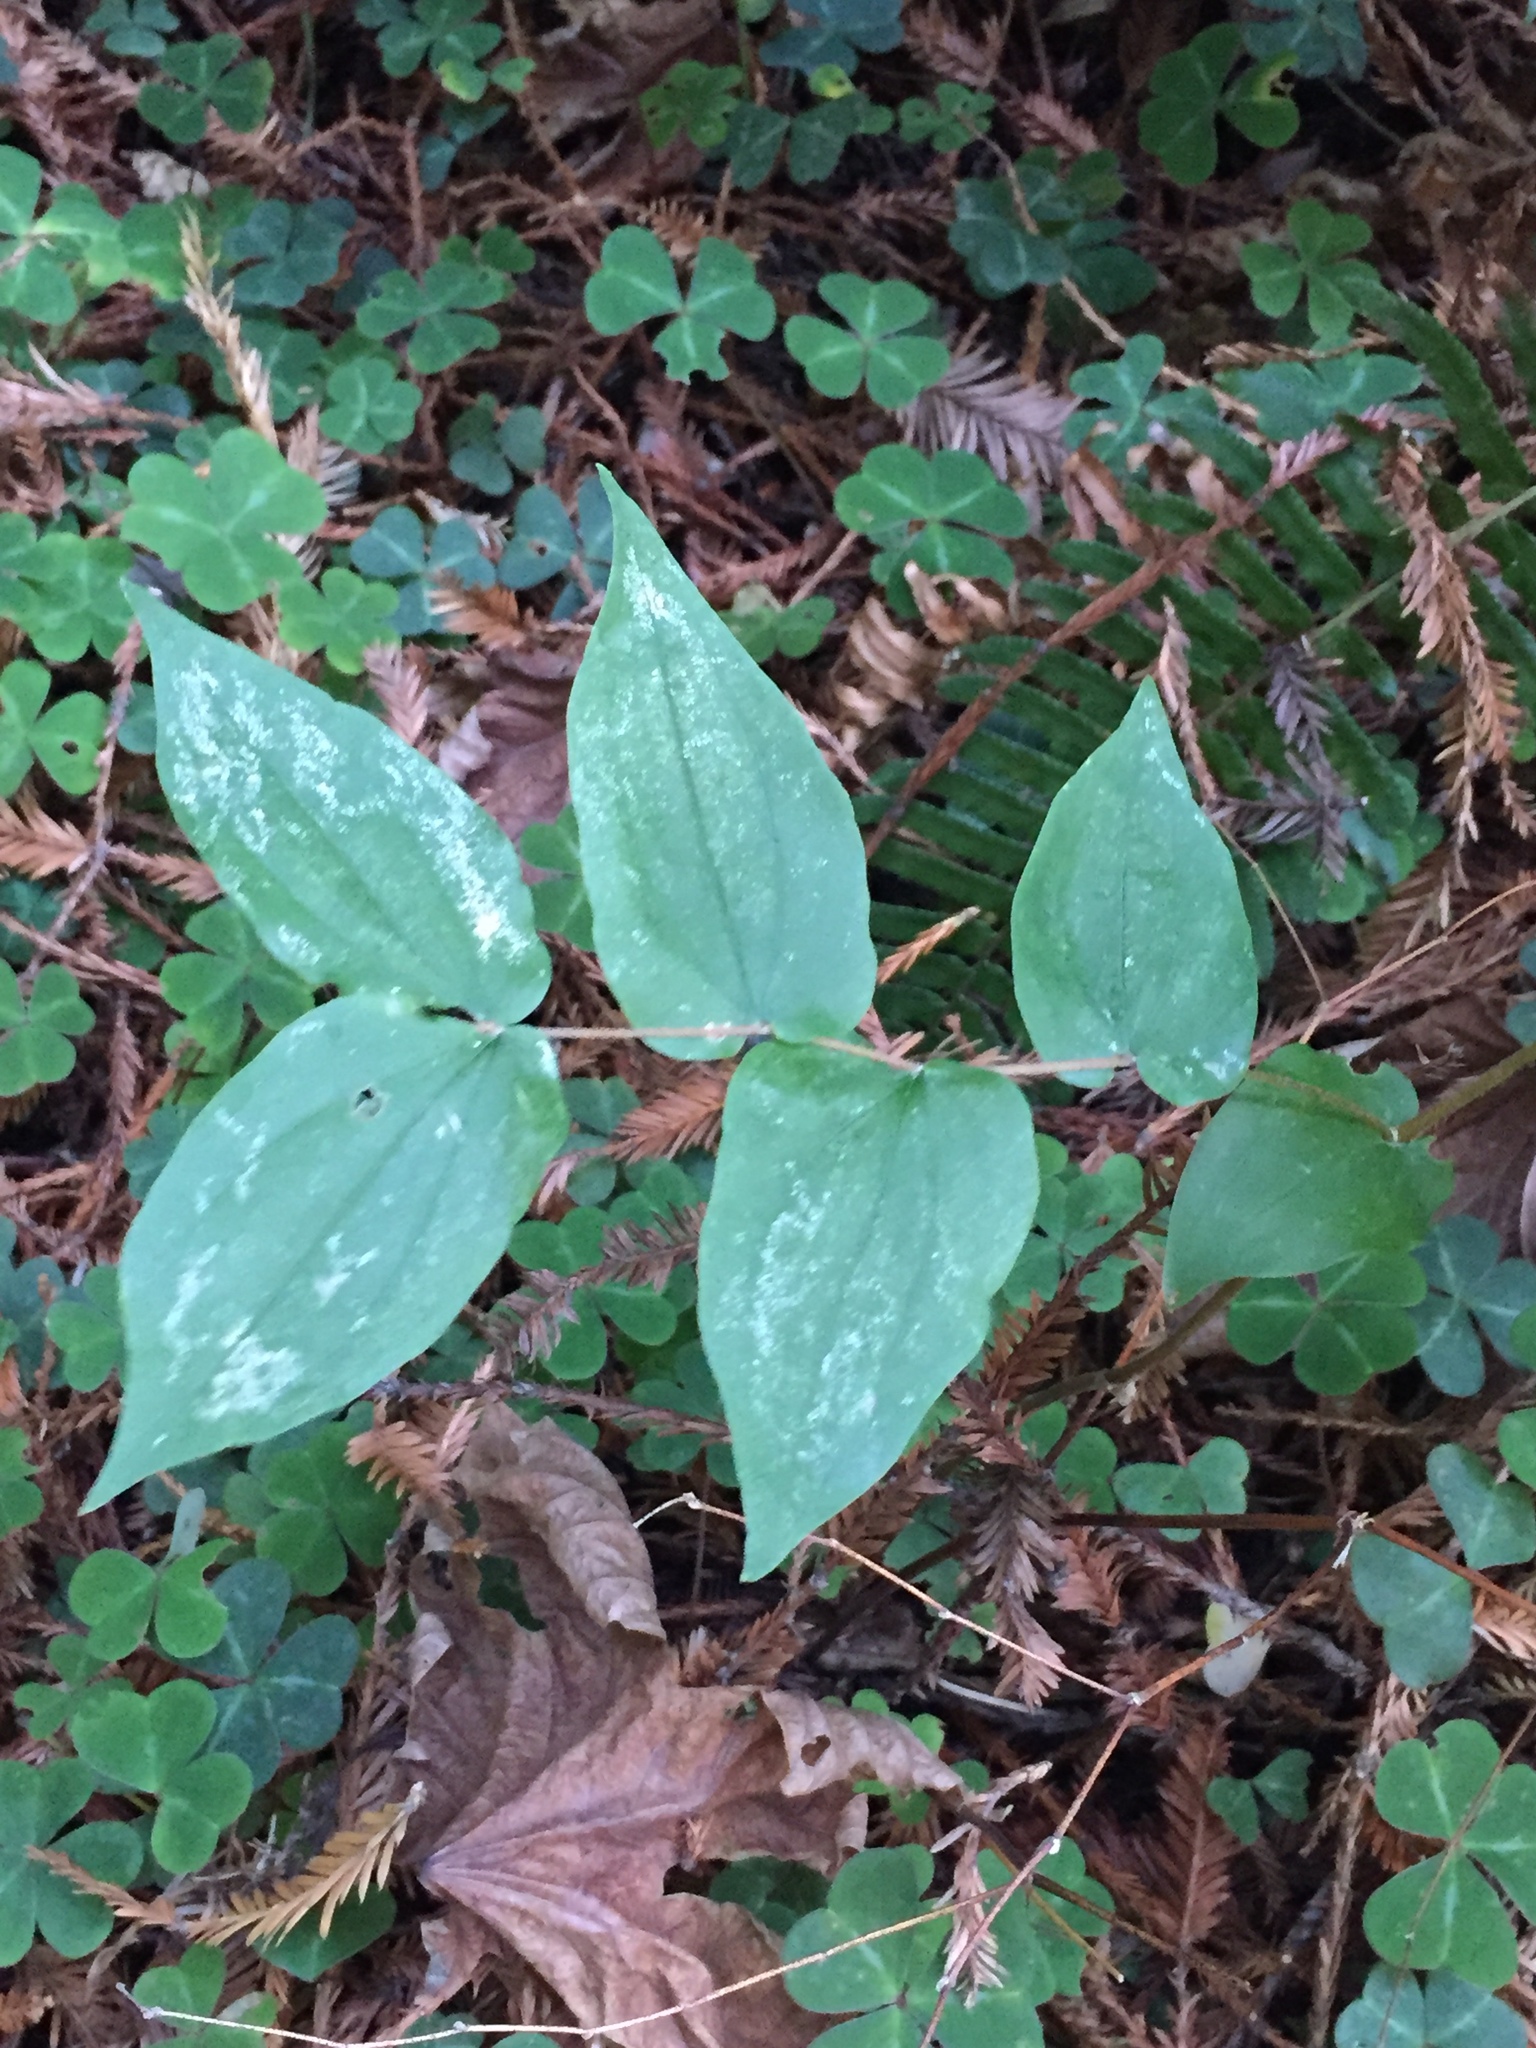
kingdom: Plantae
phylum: Tracheophyta
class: Liliopsida
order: Liliales
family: Liliaceae
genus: Prosartes
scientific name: Prosartes hookeri
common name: Fairy-bells
